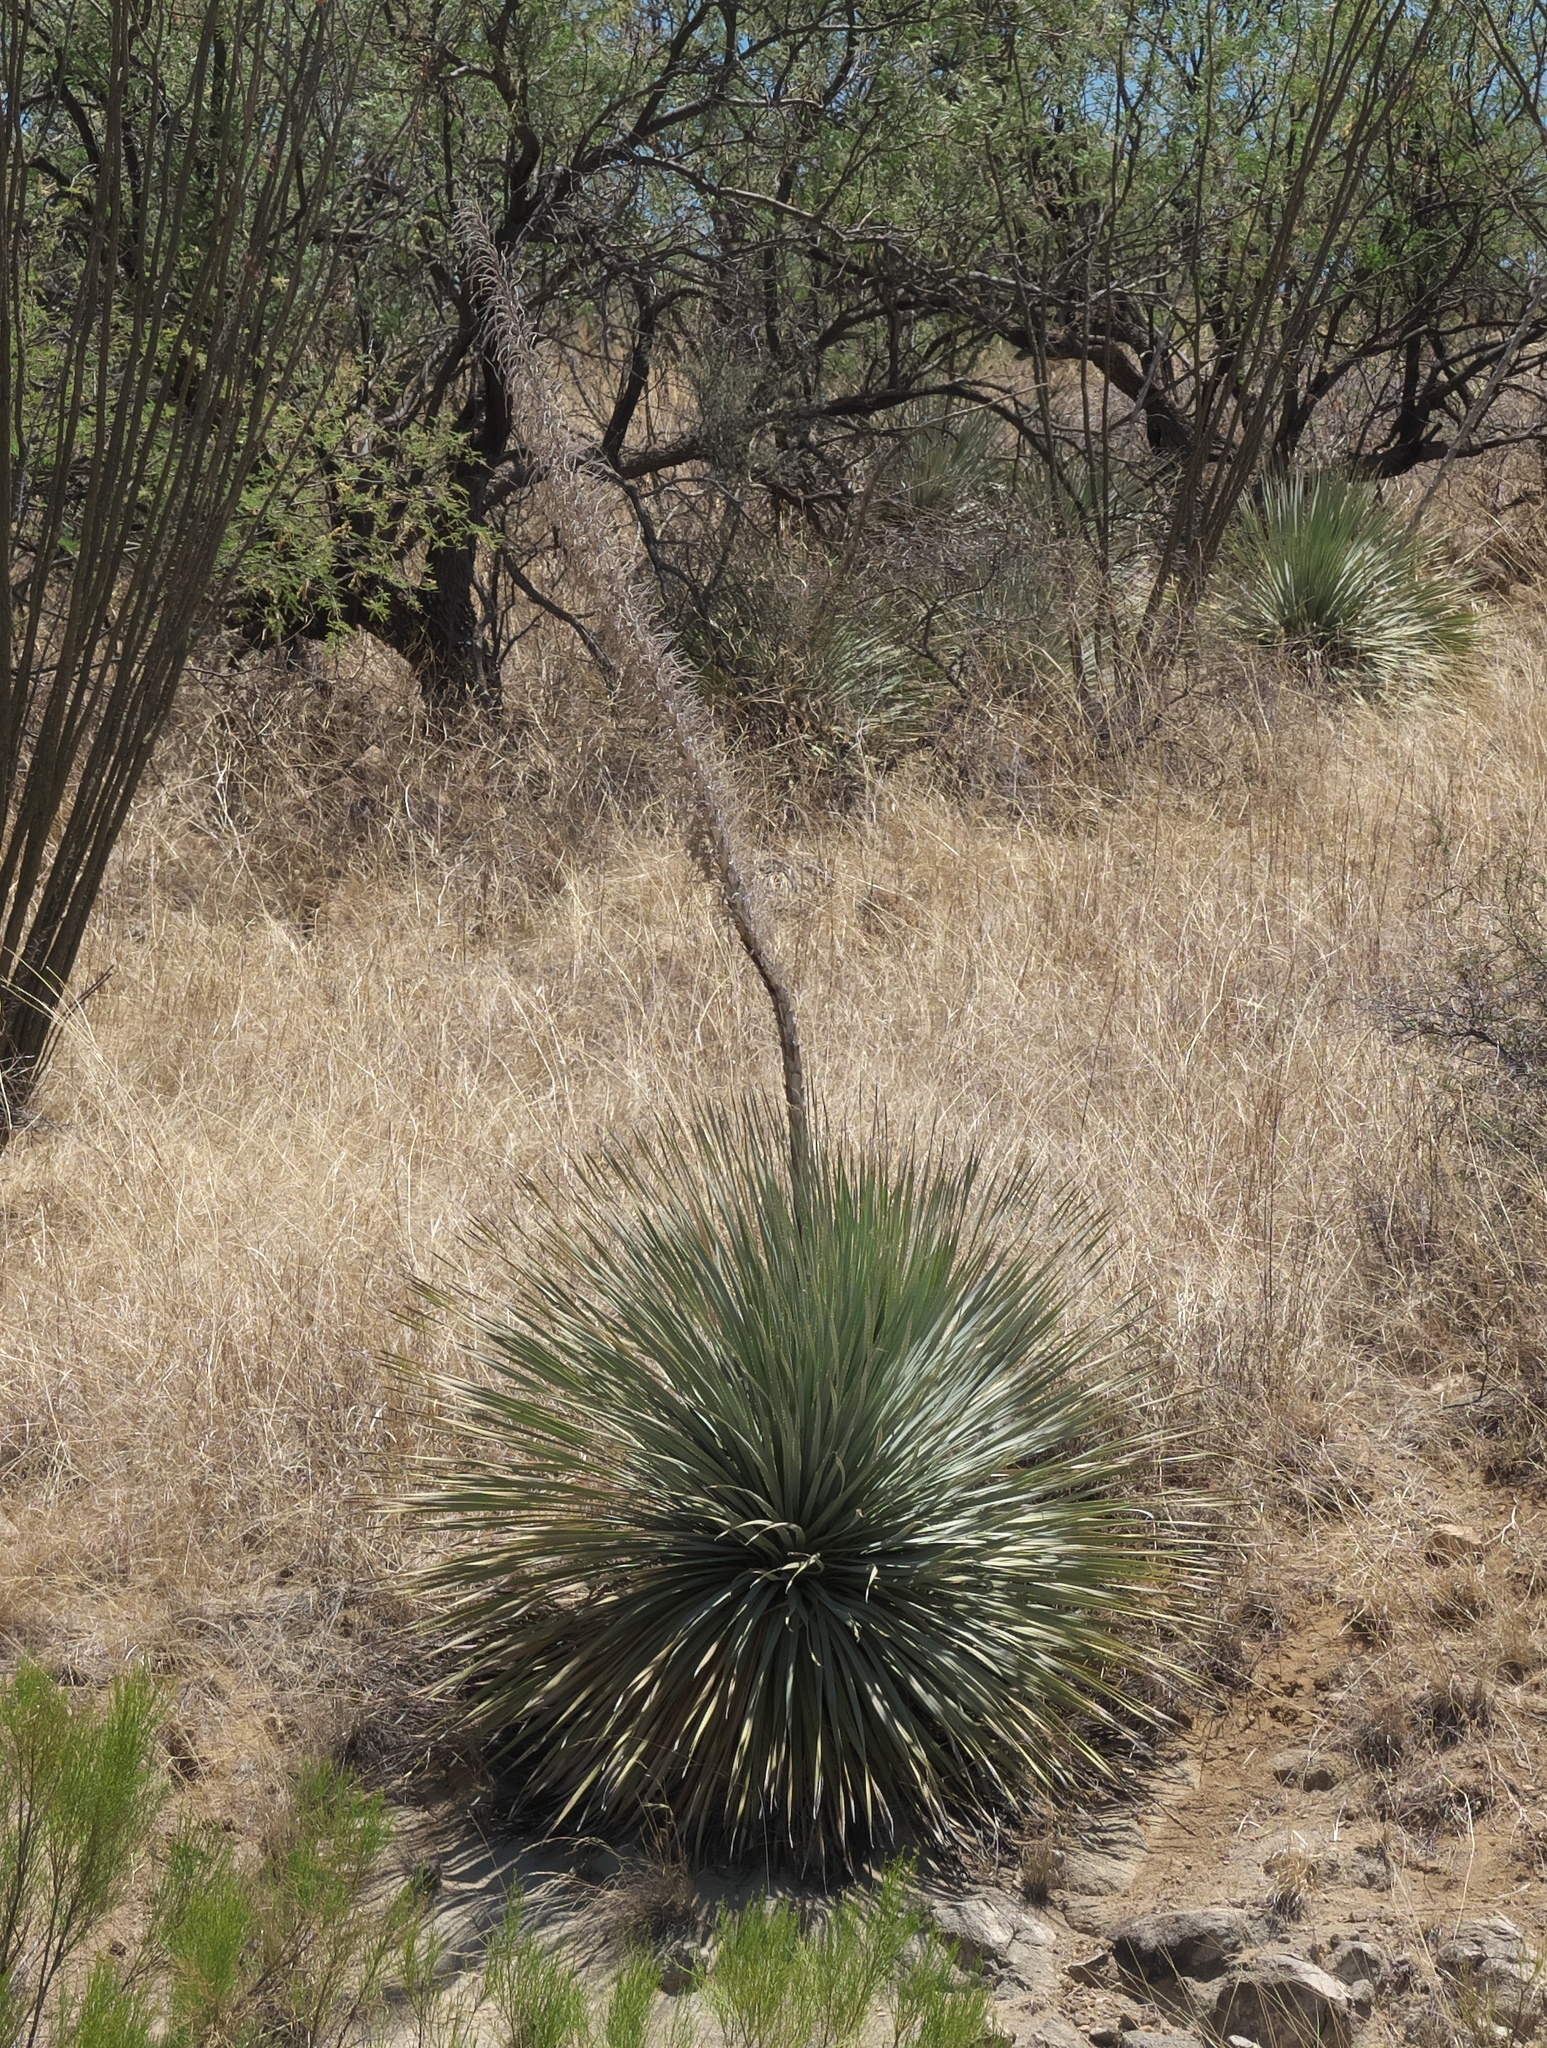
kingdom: Plantae
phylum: Tracheophyta
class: Liliopsida
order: Asparagales
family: Asparagaceae
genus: Dasylirion
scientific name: Dasylirion wheeleri
